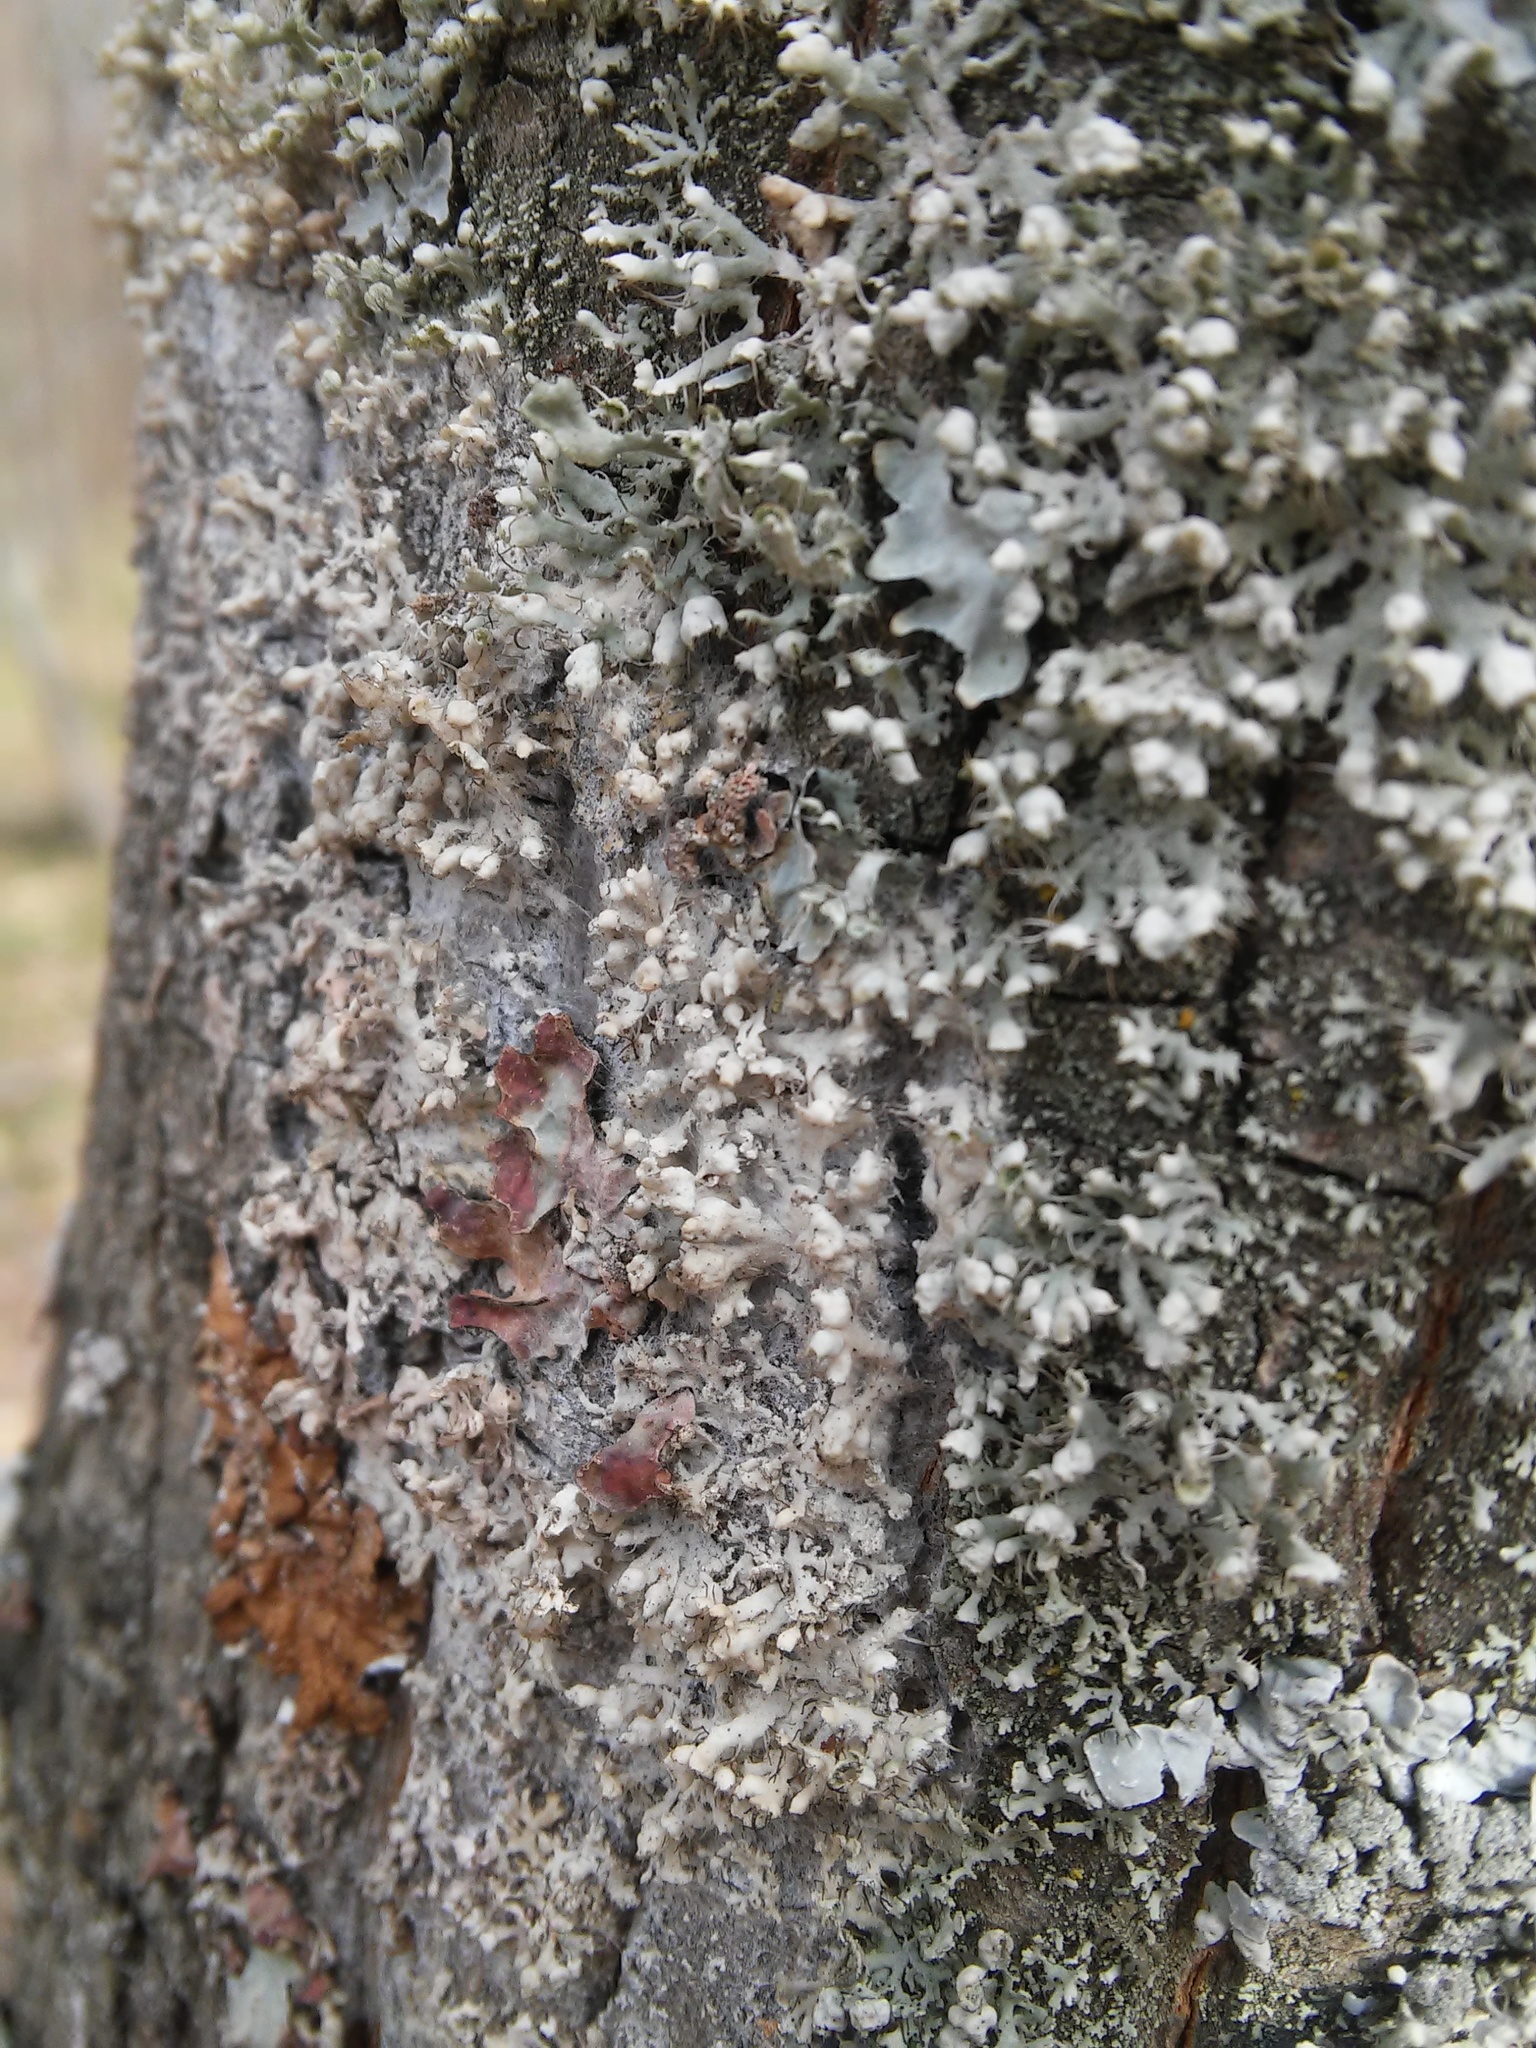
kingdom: Fungi
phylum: Basidiomycota
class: Agaricomycetes
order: Atheliales
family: Atheliaceae
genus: Athelia
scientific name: Athelia arachnoidea
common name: Candelabra duster
